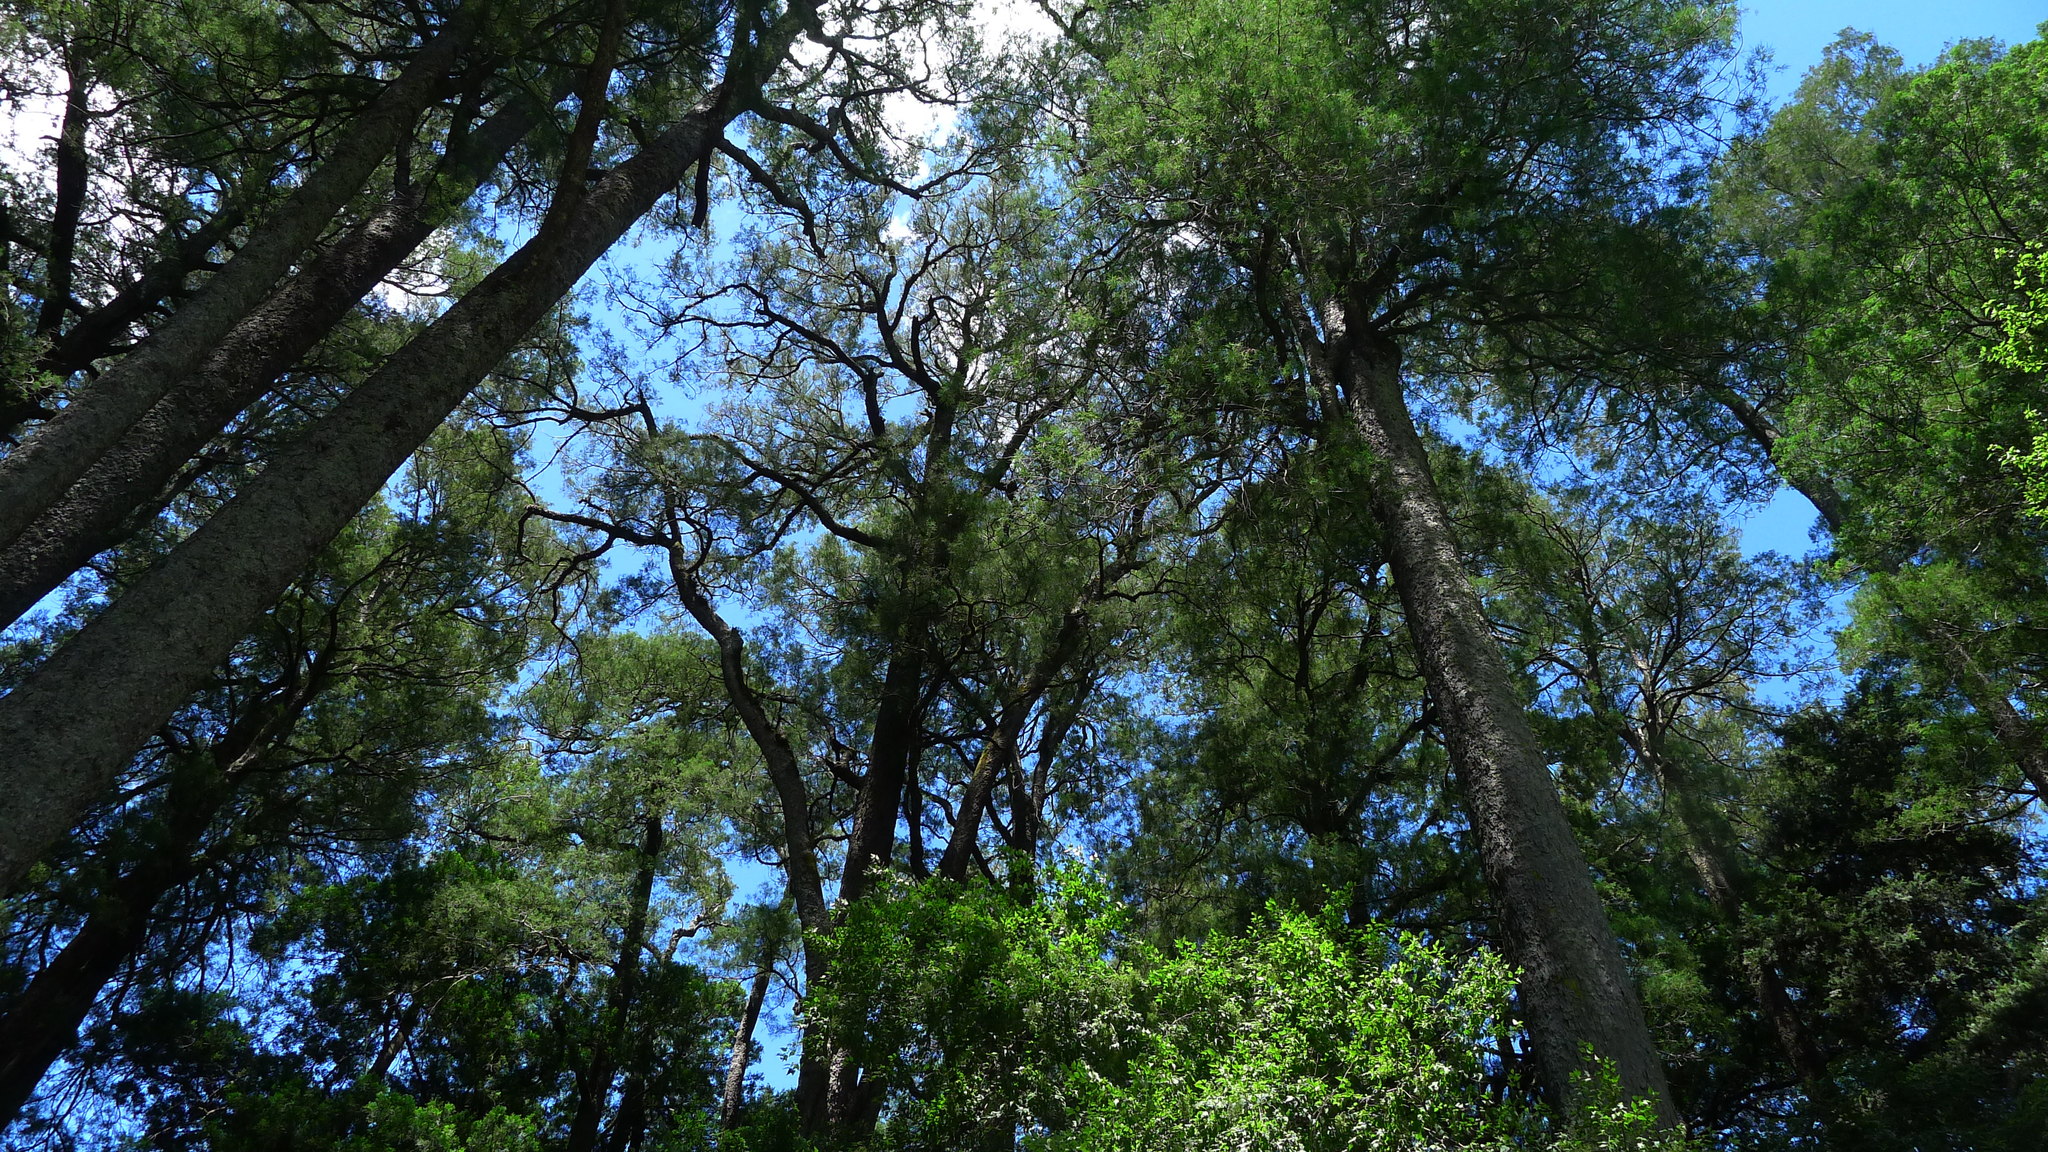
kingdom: Plantae
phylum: Tracheophyta
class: Pinopsida
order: Pinales
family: Podocarpaceae
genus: Dacrycarpus
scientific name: Dacrycarpus dacrydioides
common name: White pine
